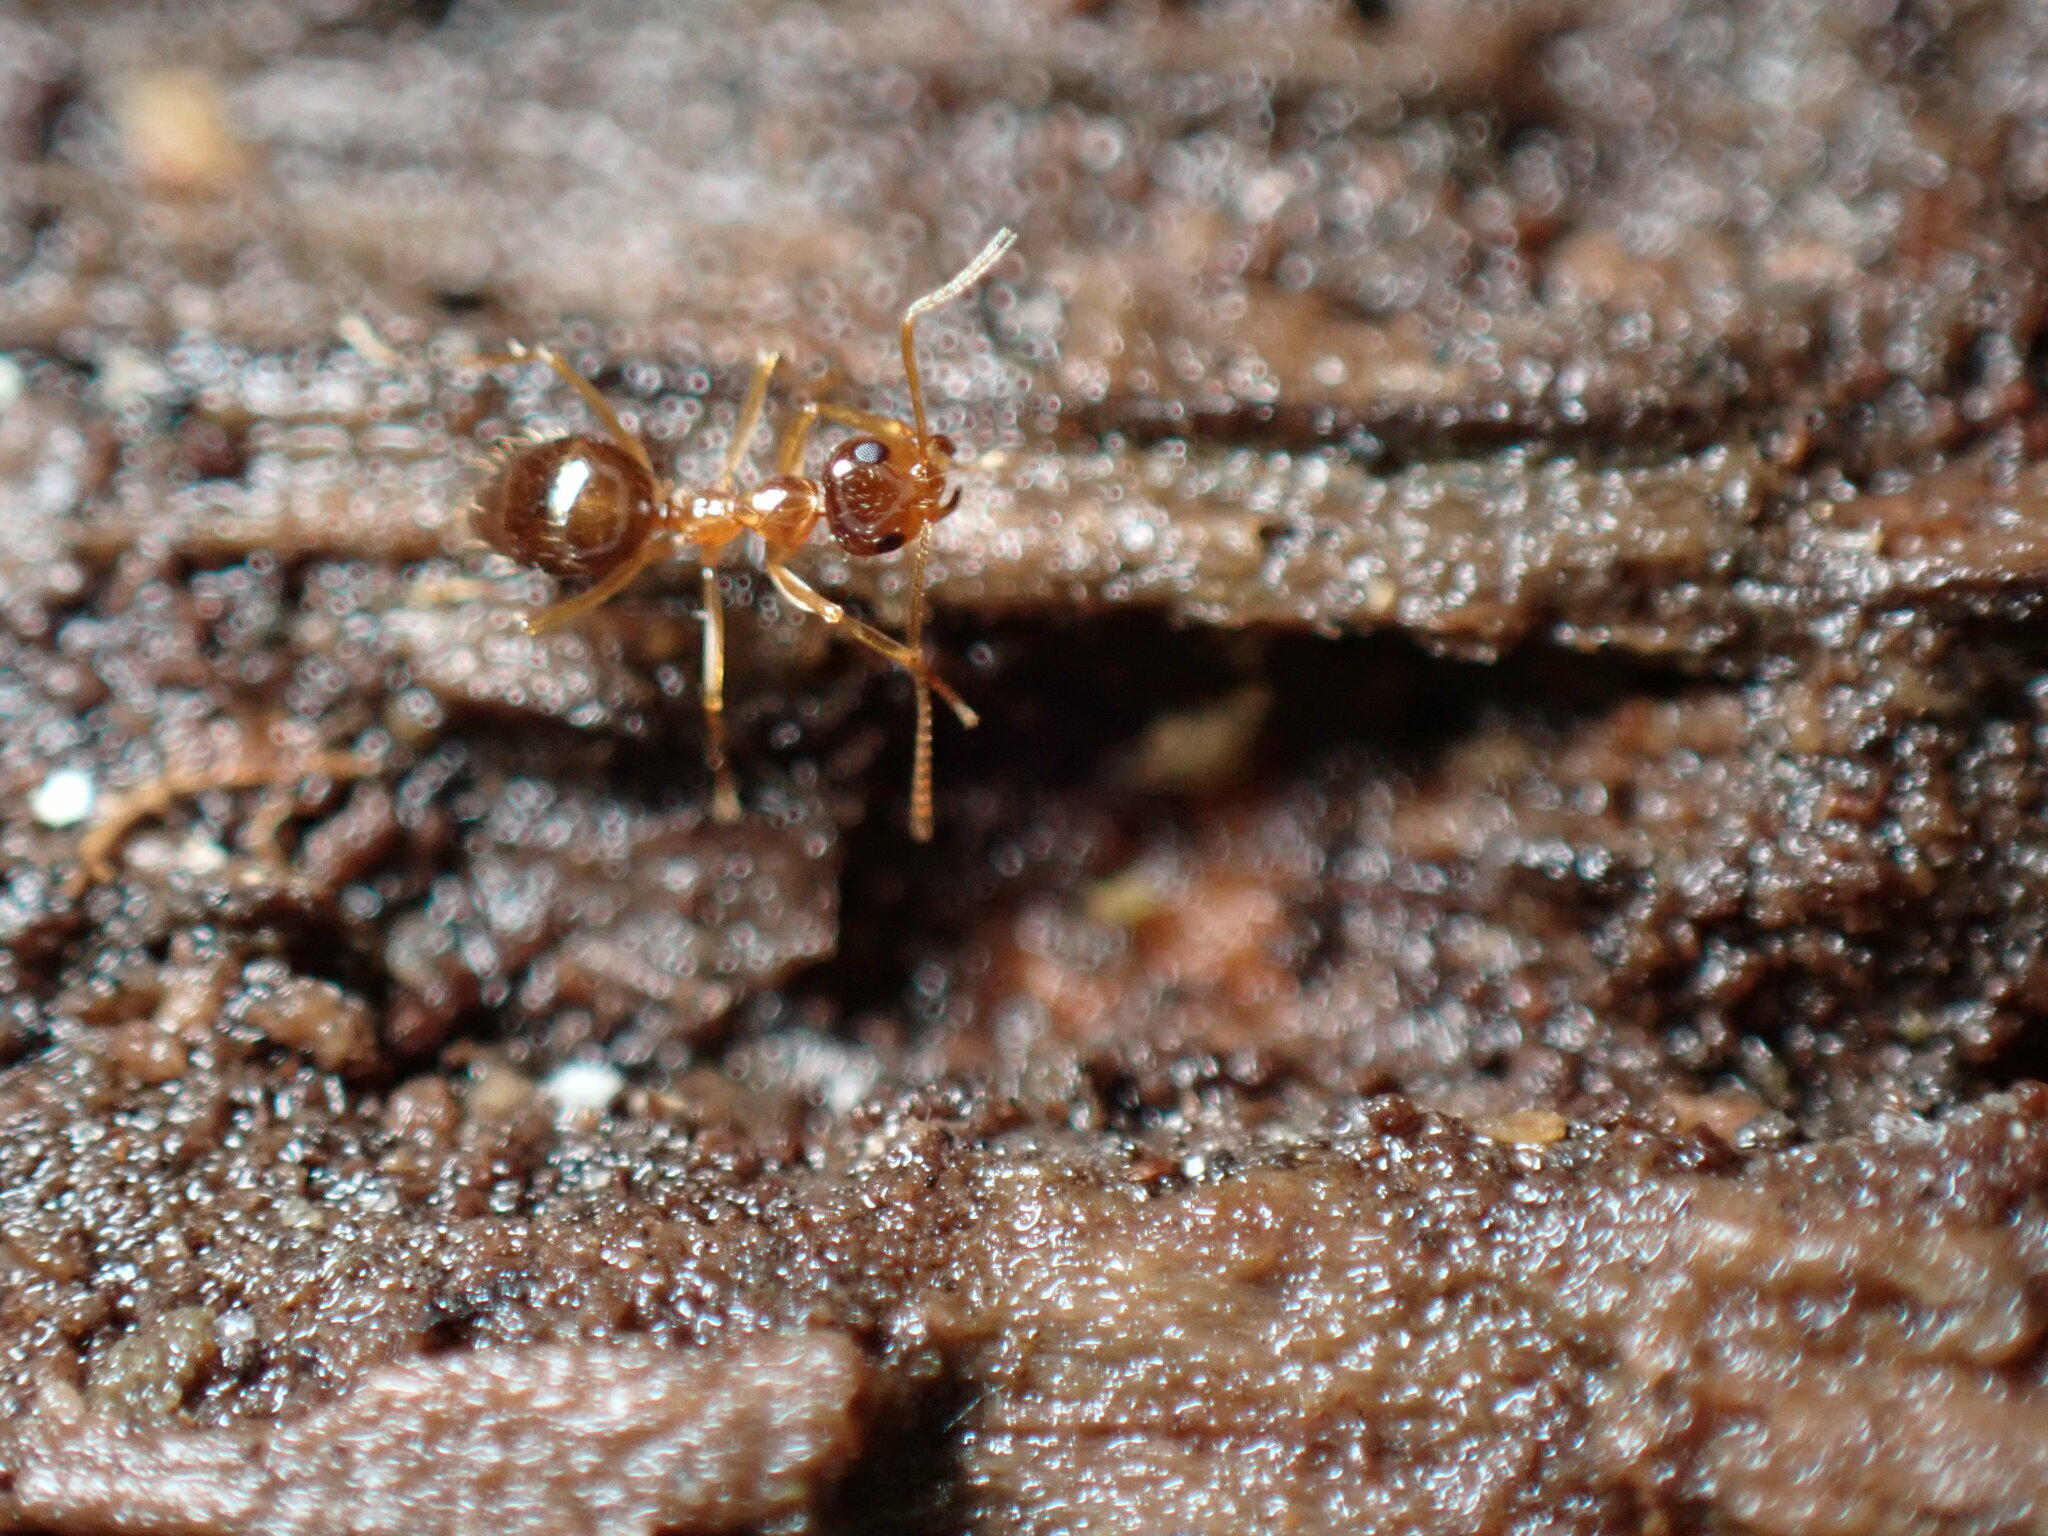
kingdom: Animalia
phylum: Arthropoda
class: Insecta
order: Hymenoptera
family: Formicidae
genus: Prenolepis
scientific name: Prenolepis imparis
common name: Small honey ant
